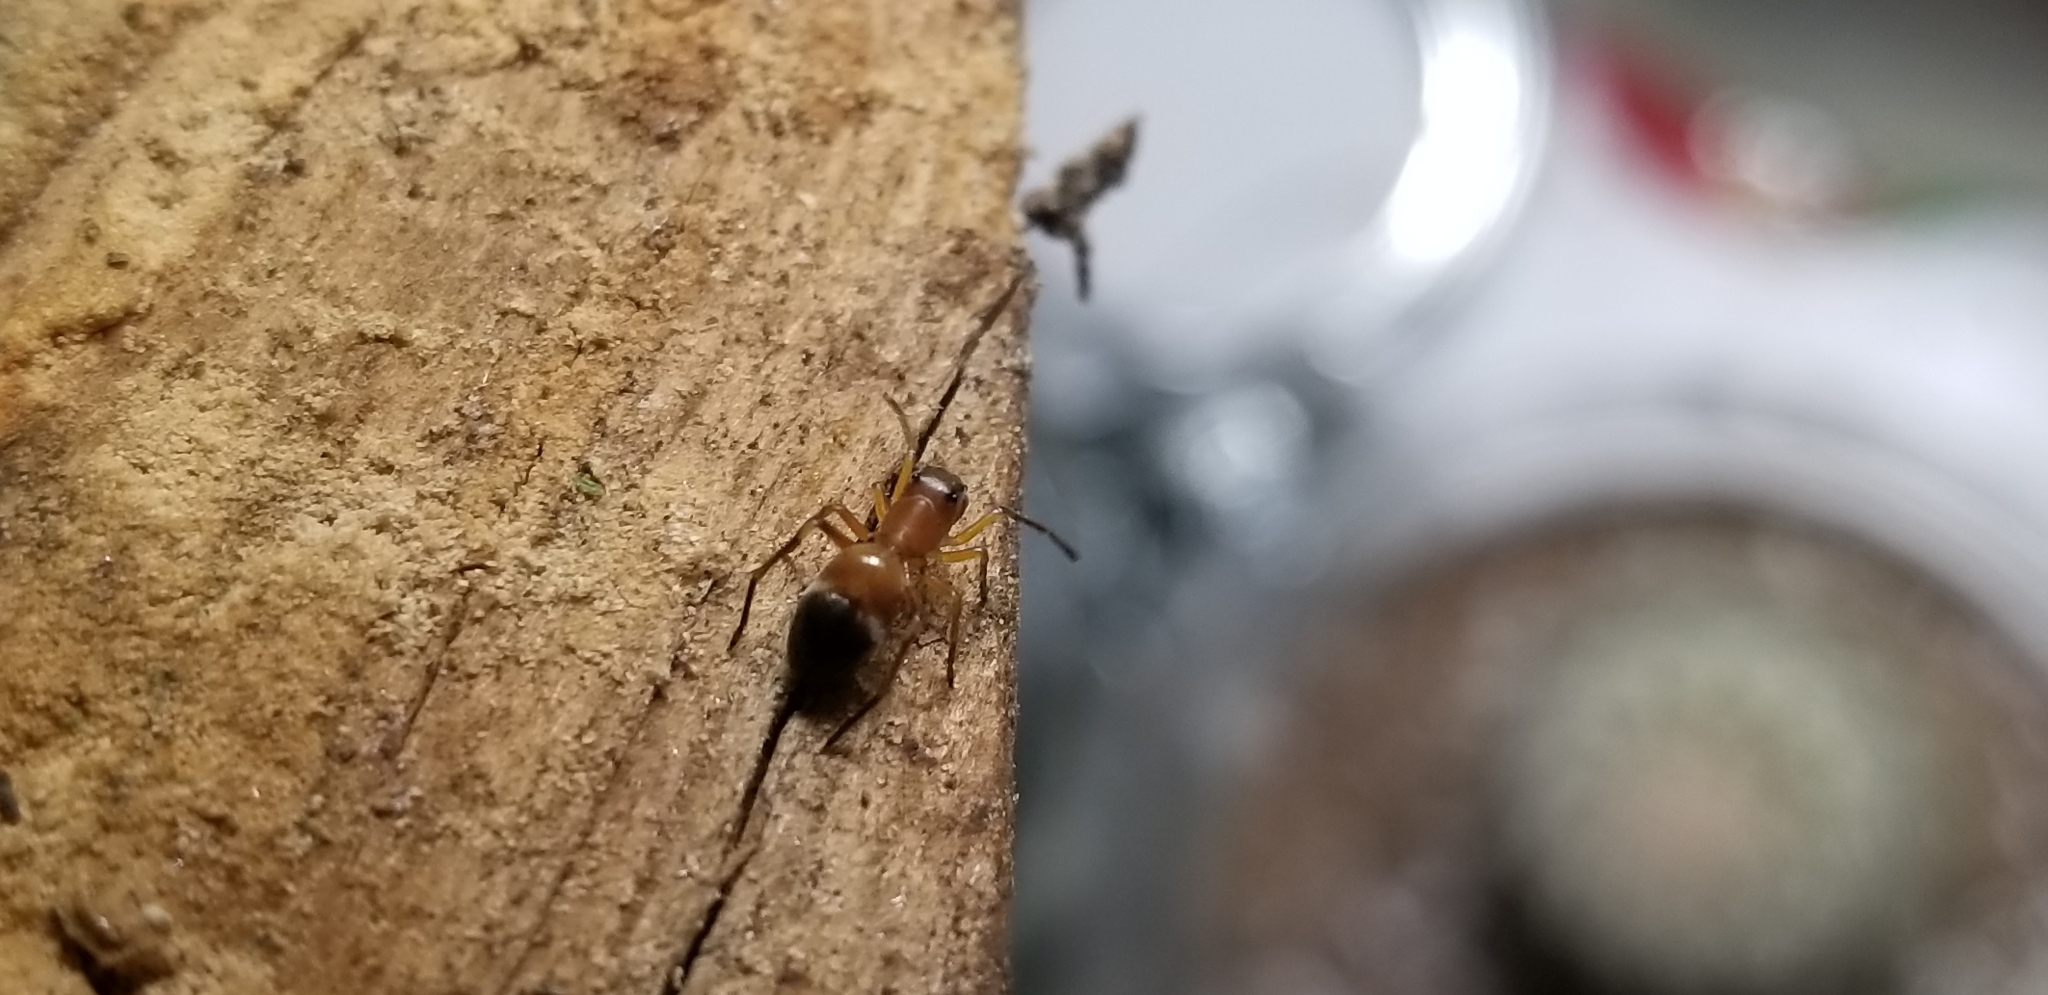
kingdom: Animalia
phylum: Arthropoda
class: Arachnida
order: Araneae
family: Salticidae
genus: Sarinda
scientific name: Sarinda hentzi
